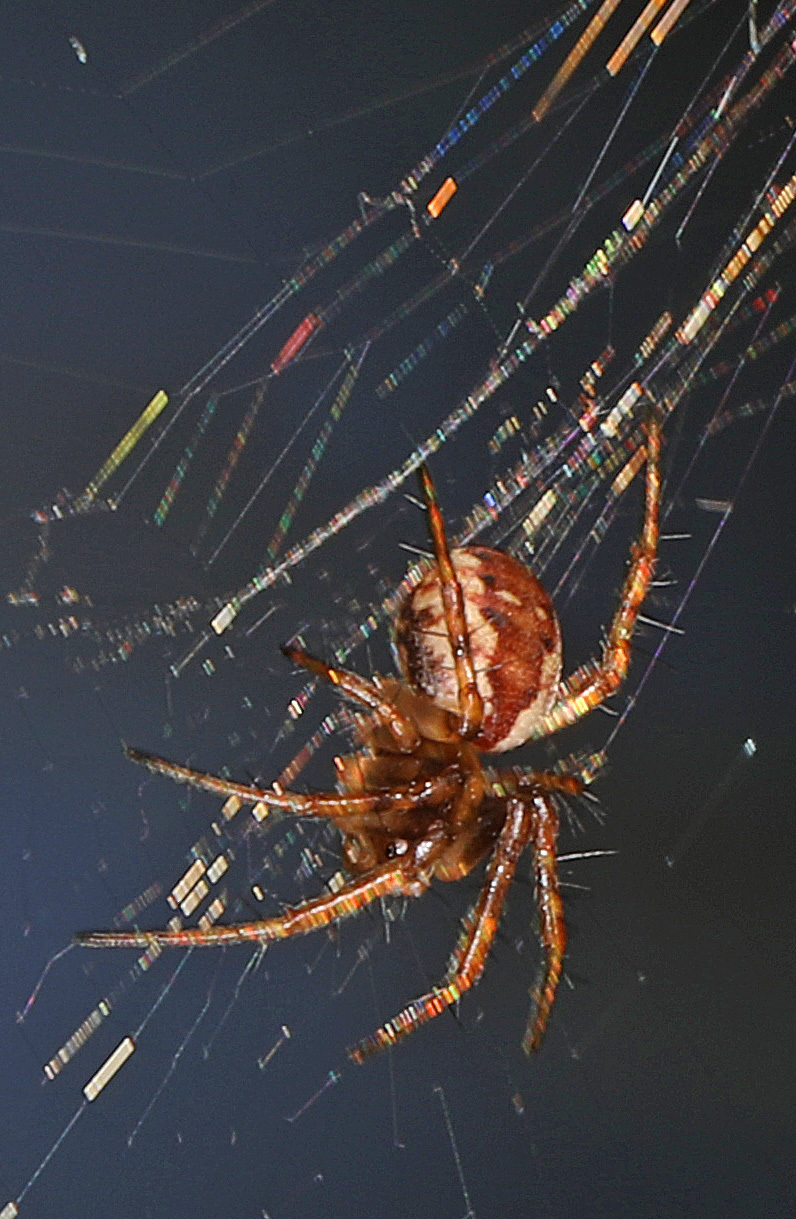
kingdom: Animalia
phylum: Arthropoda
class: Arachnida
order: Araneae
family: Araneidae
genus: Mangora
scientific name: Mangora placida
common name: Tuft-legged orbweaver
